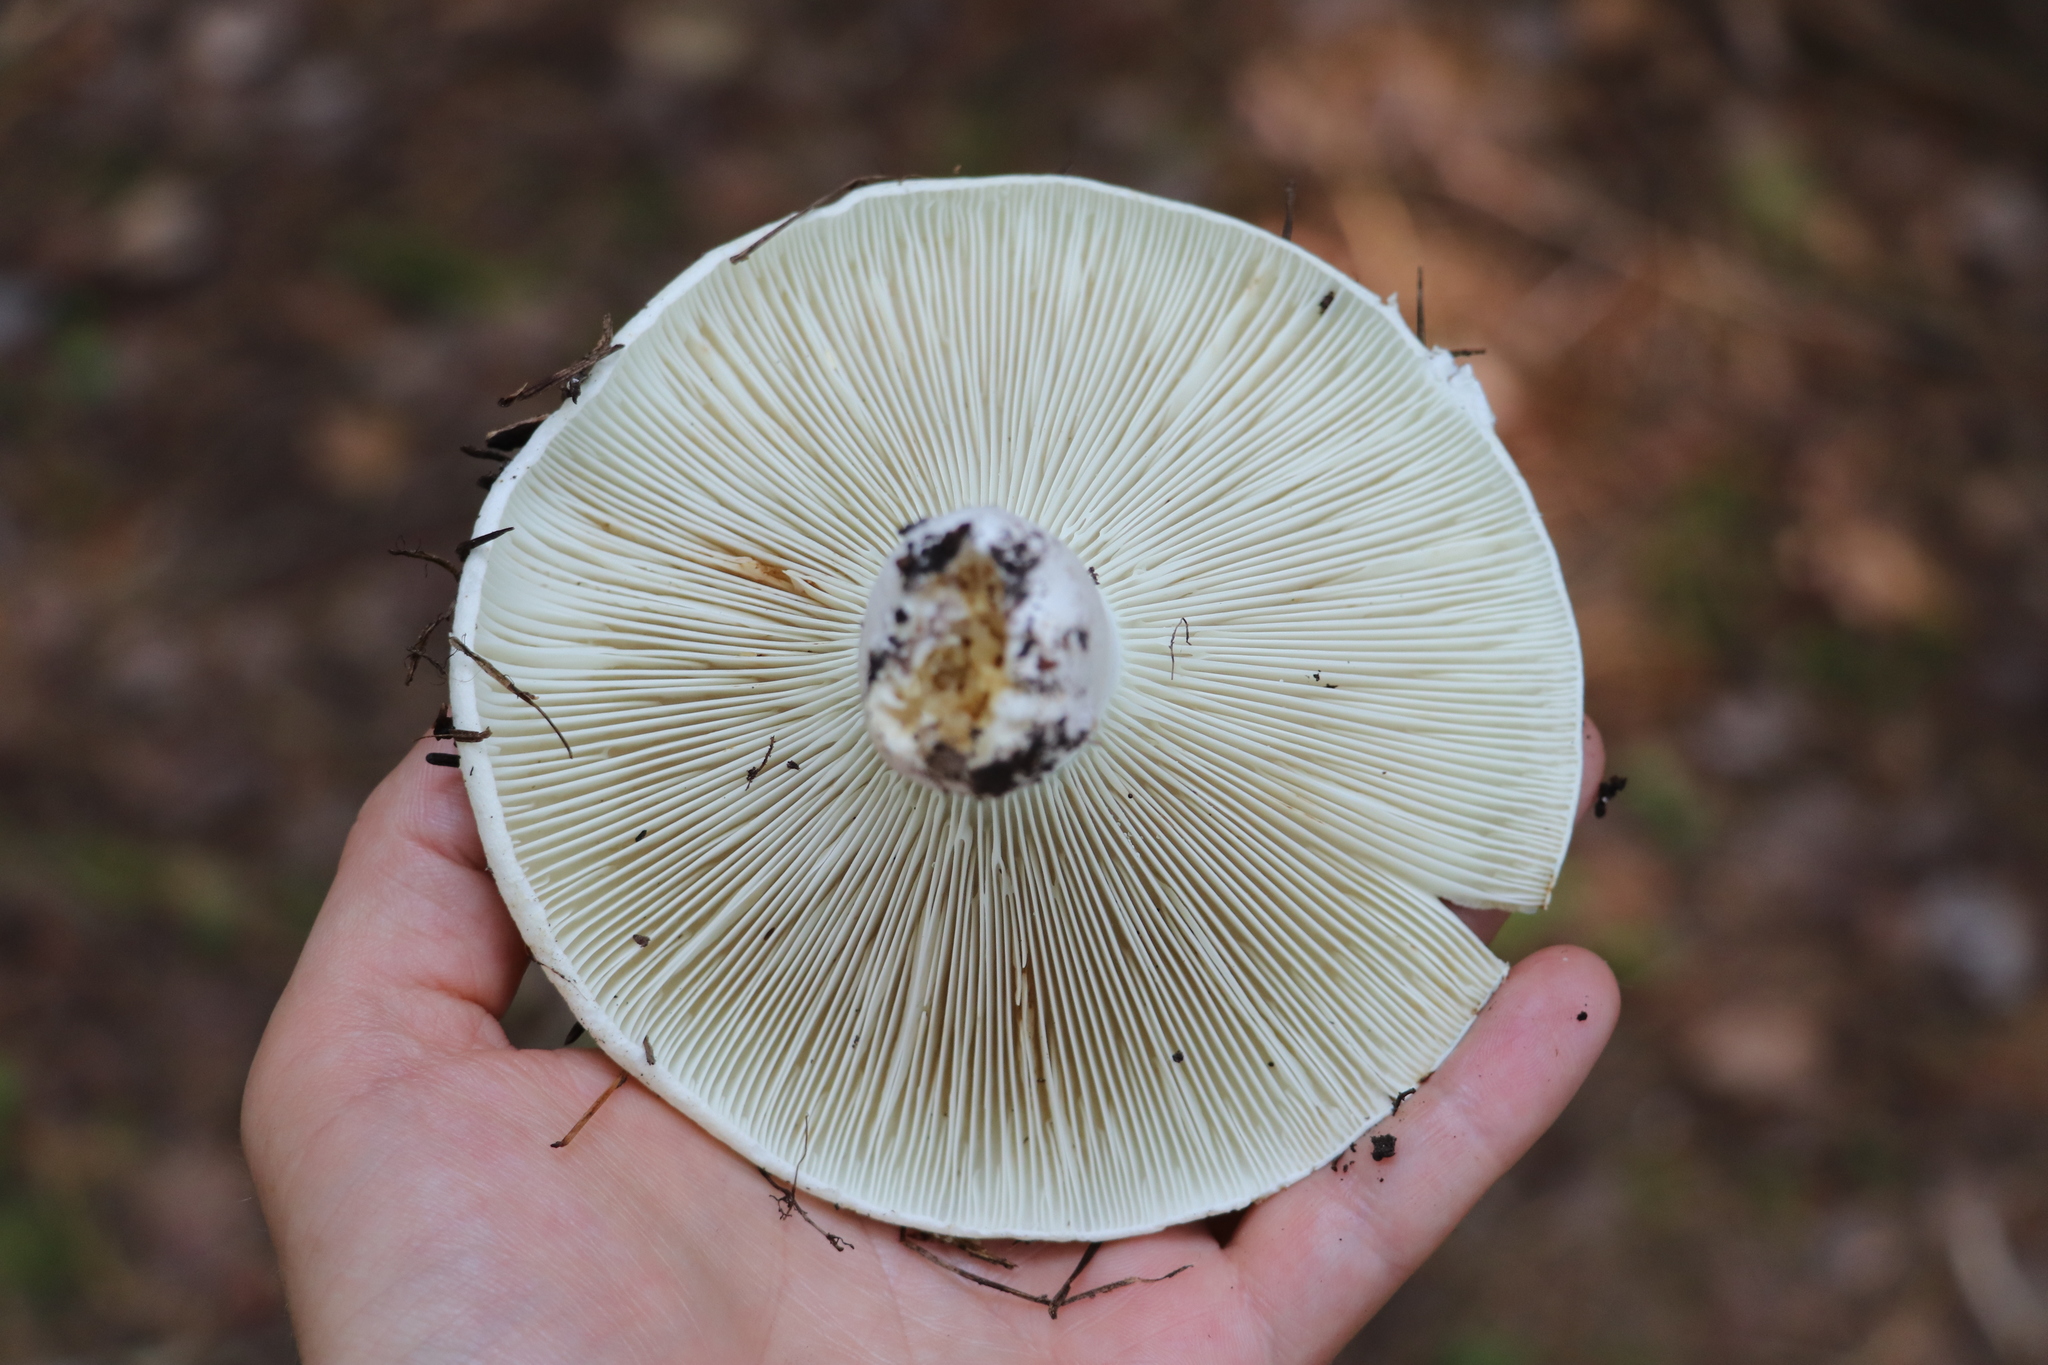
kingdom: Fungi
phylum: Basidiomycota
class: Agaricomycetes
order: Russulales
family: Russulaceae
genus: Russula
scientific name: Russula delica
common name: Milk white brittlegill
